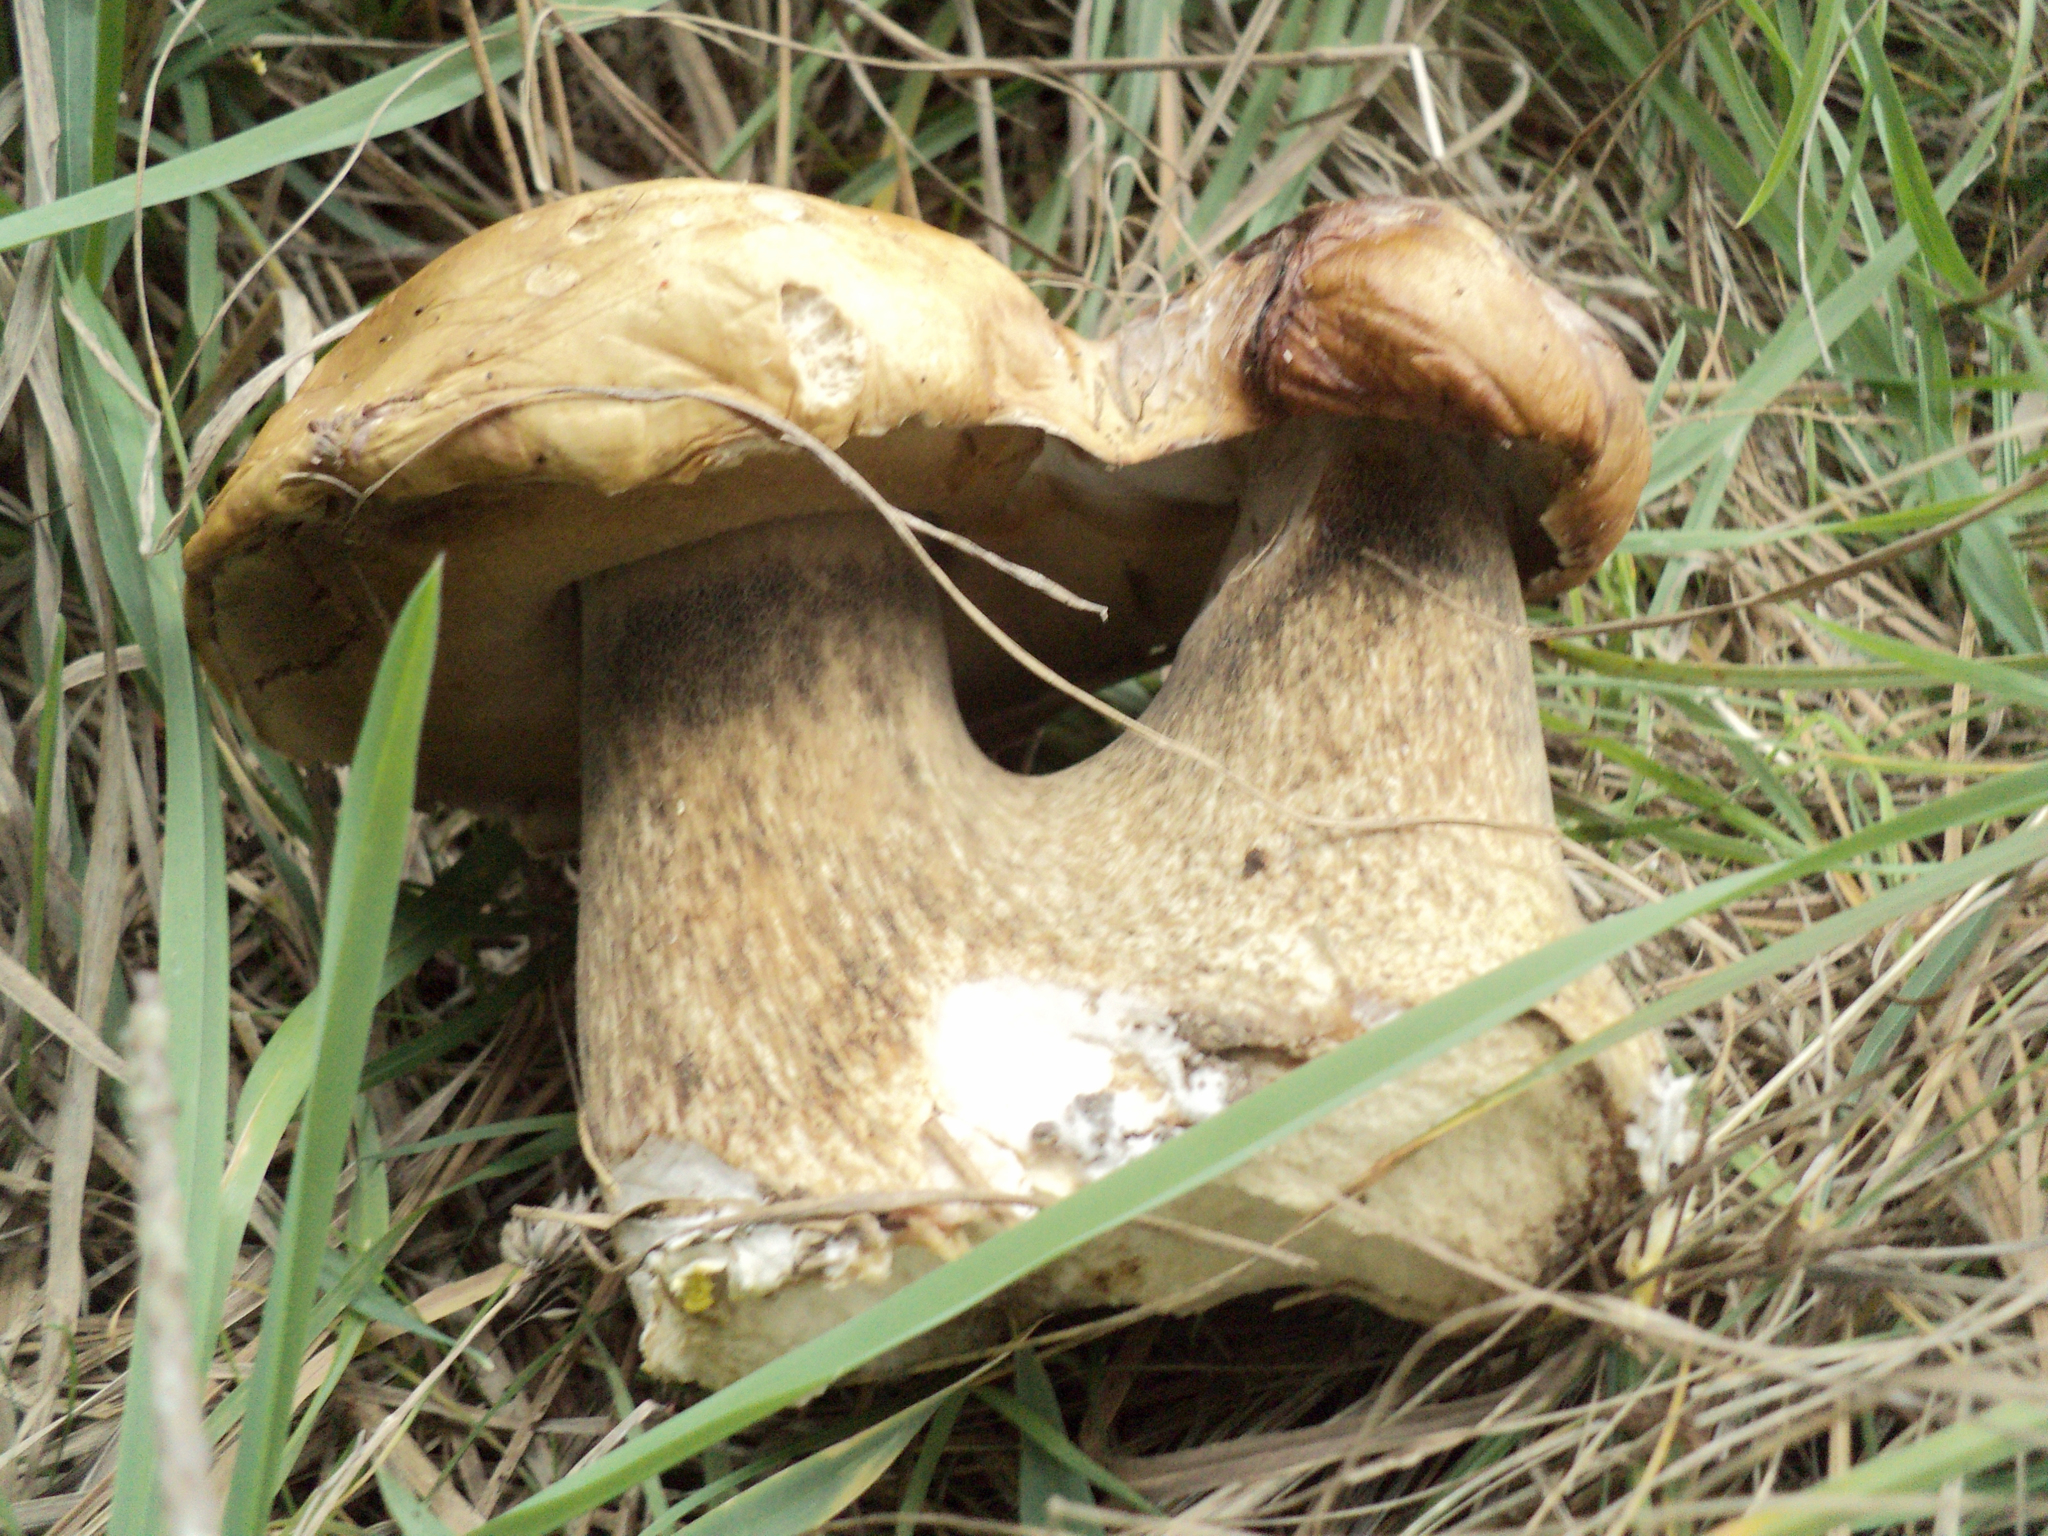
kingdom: Fungi
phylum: Basidiomycota
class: Agaricomycetes
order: Boletales
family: Boletaceae
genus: Boletus
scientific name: Boletus edulis
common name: Cep
